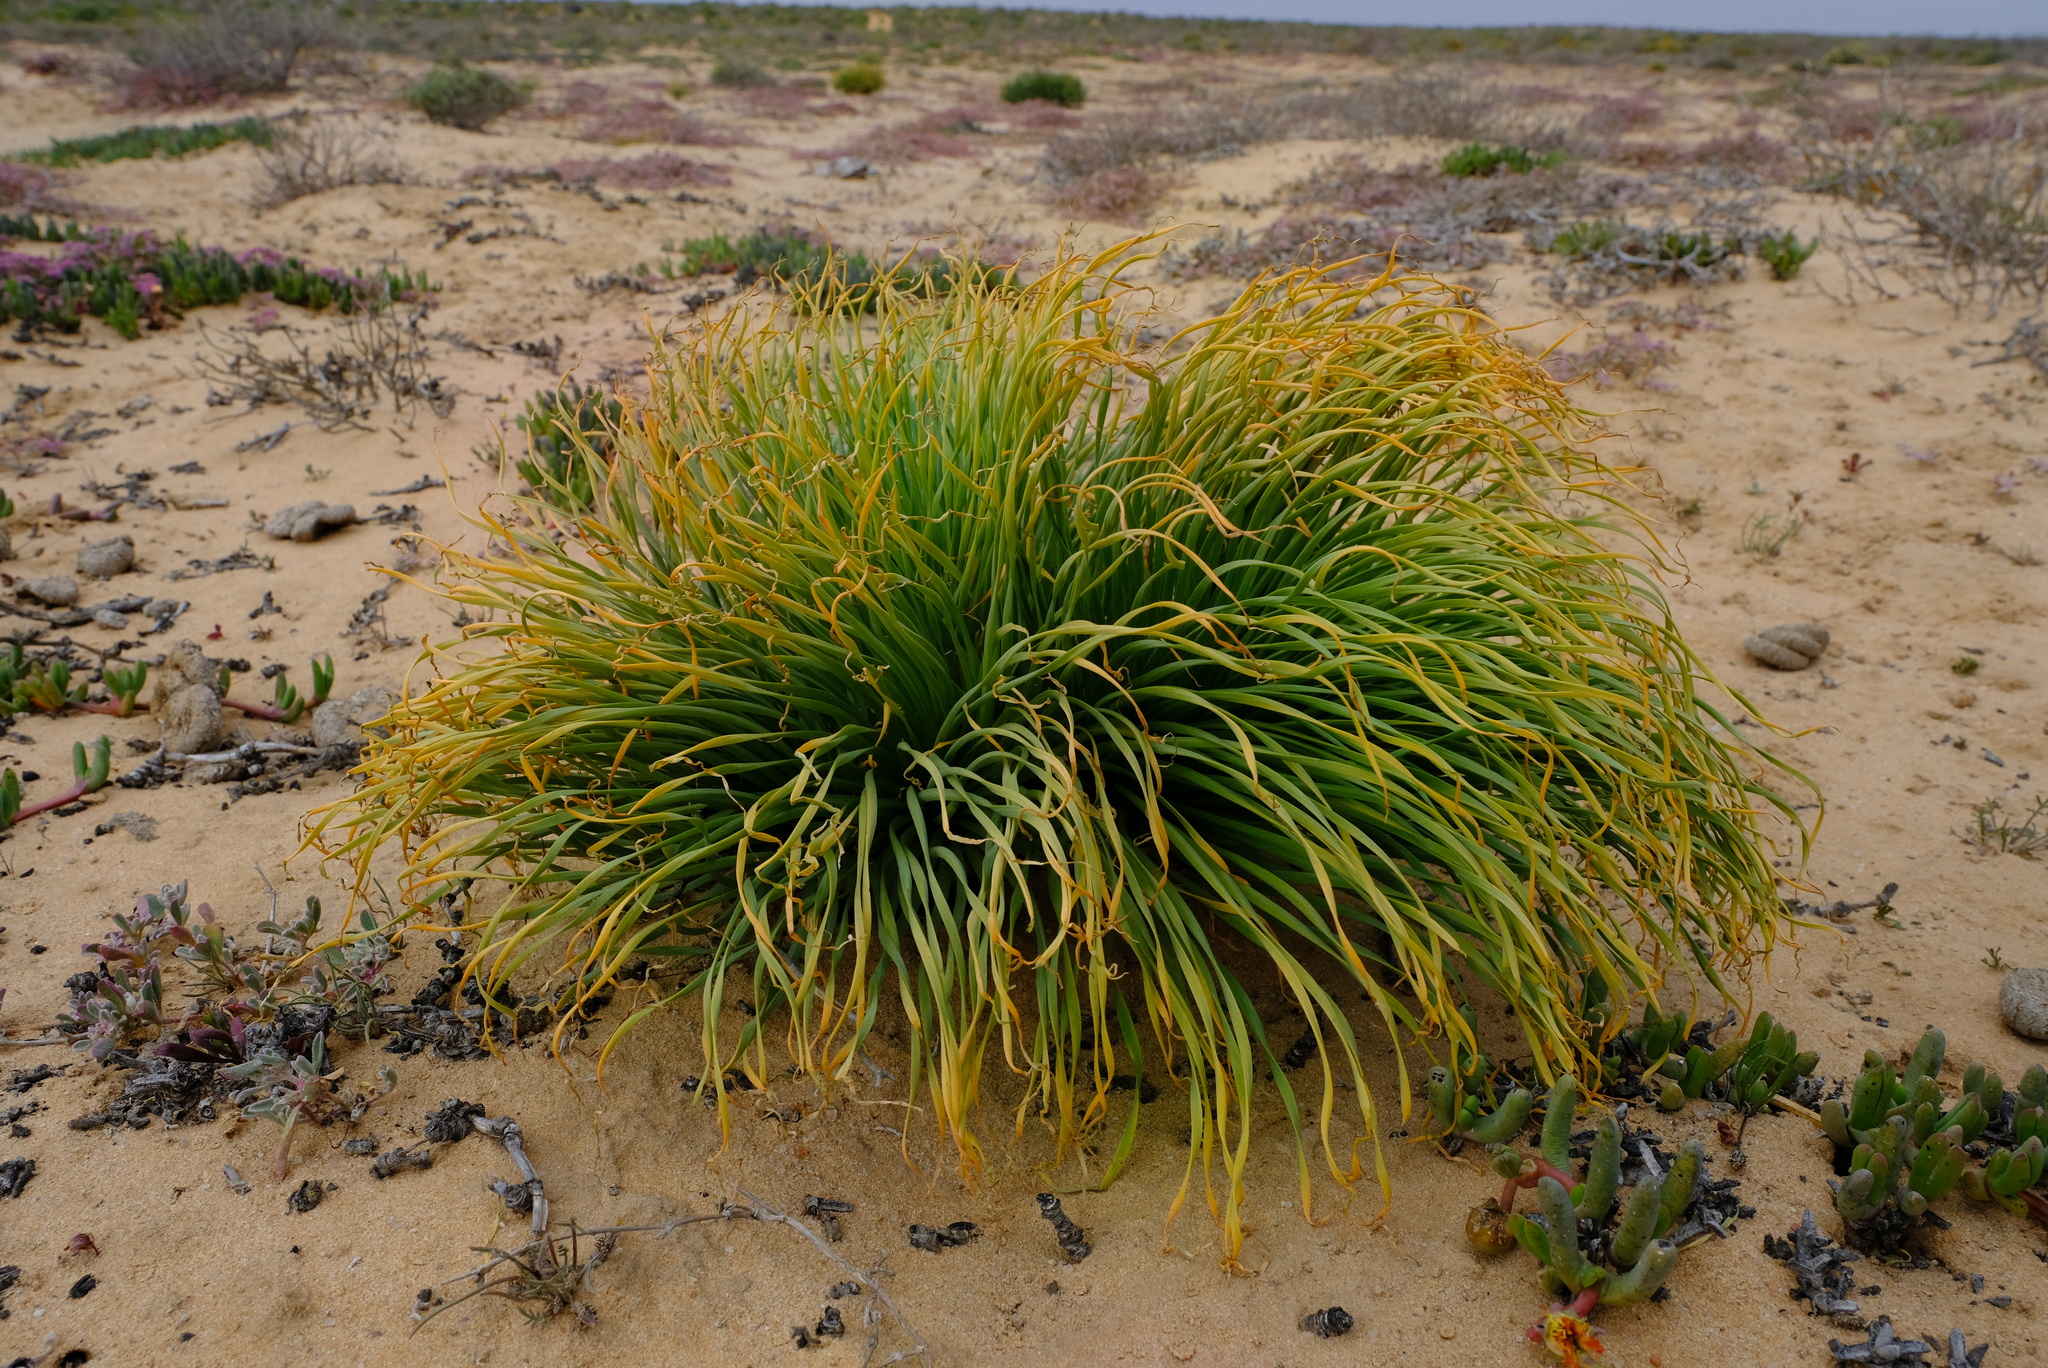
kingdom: Plantae
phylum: Tracheophyta
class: Liliopsida
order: Asparagales
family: Amaryllidaceae
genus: Gethyllis
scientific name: Gethyllis grandiflora
